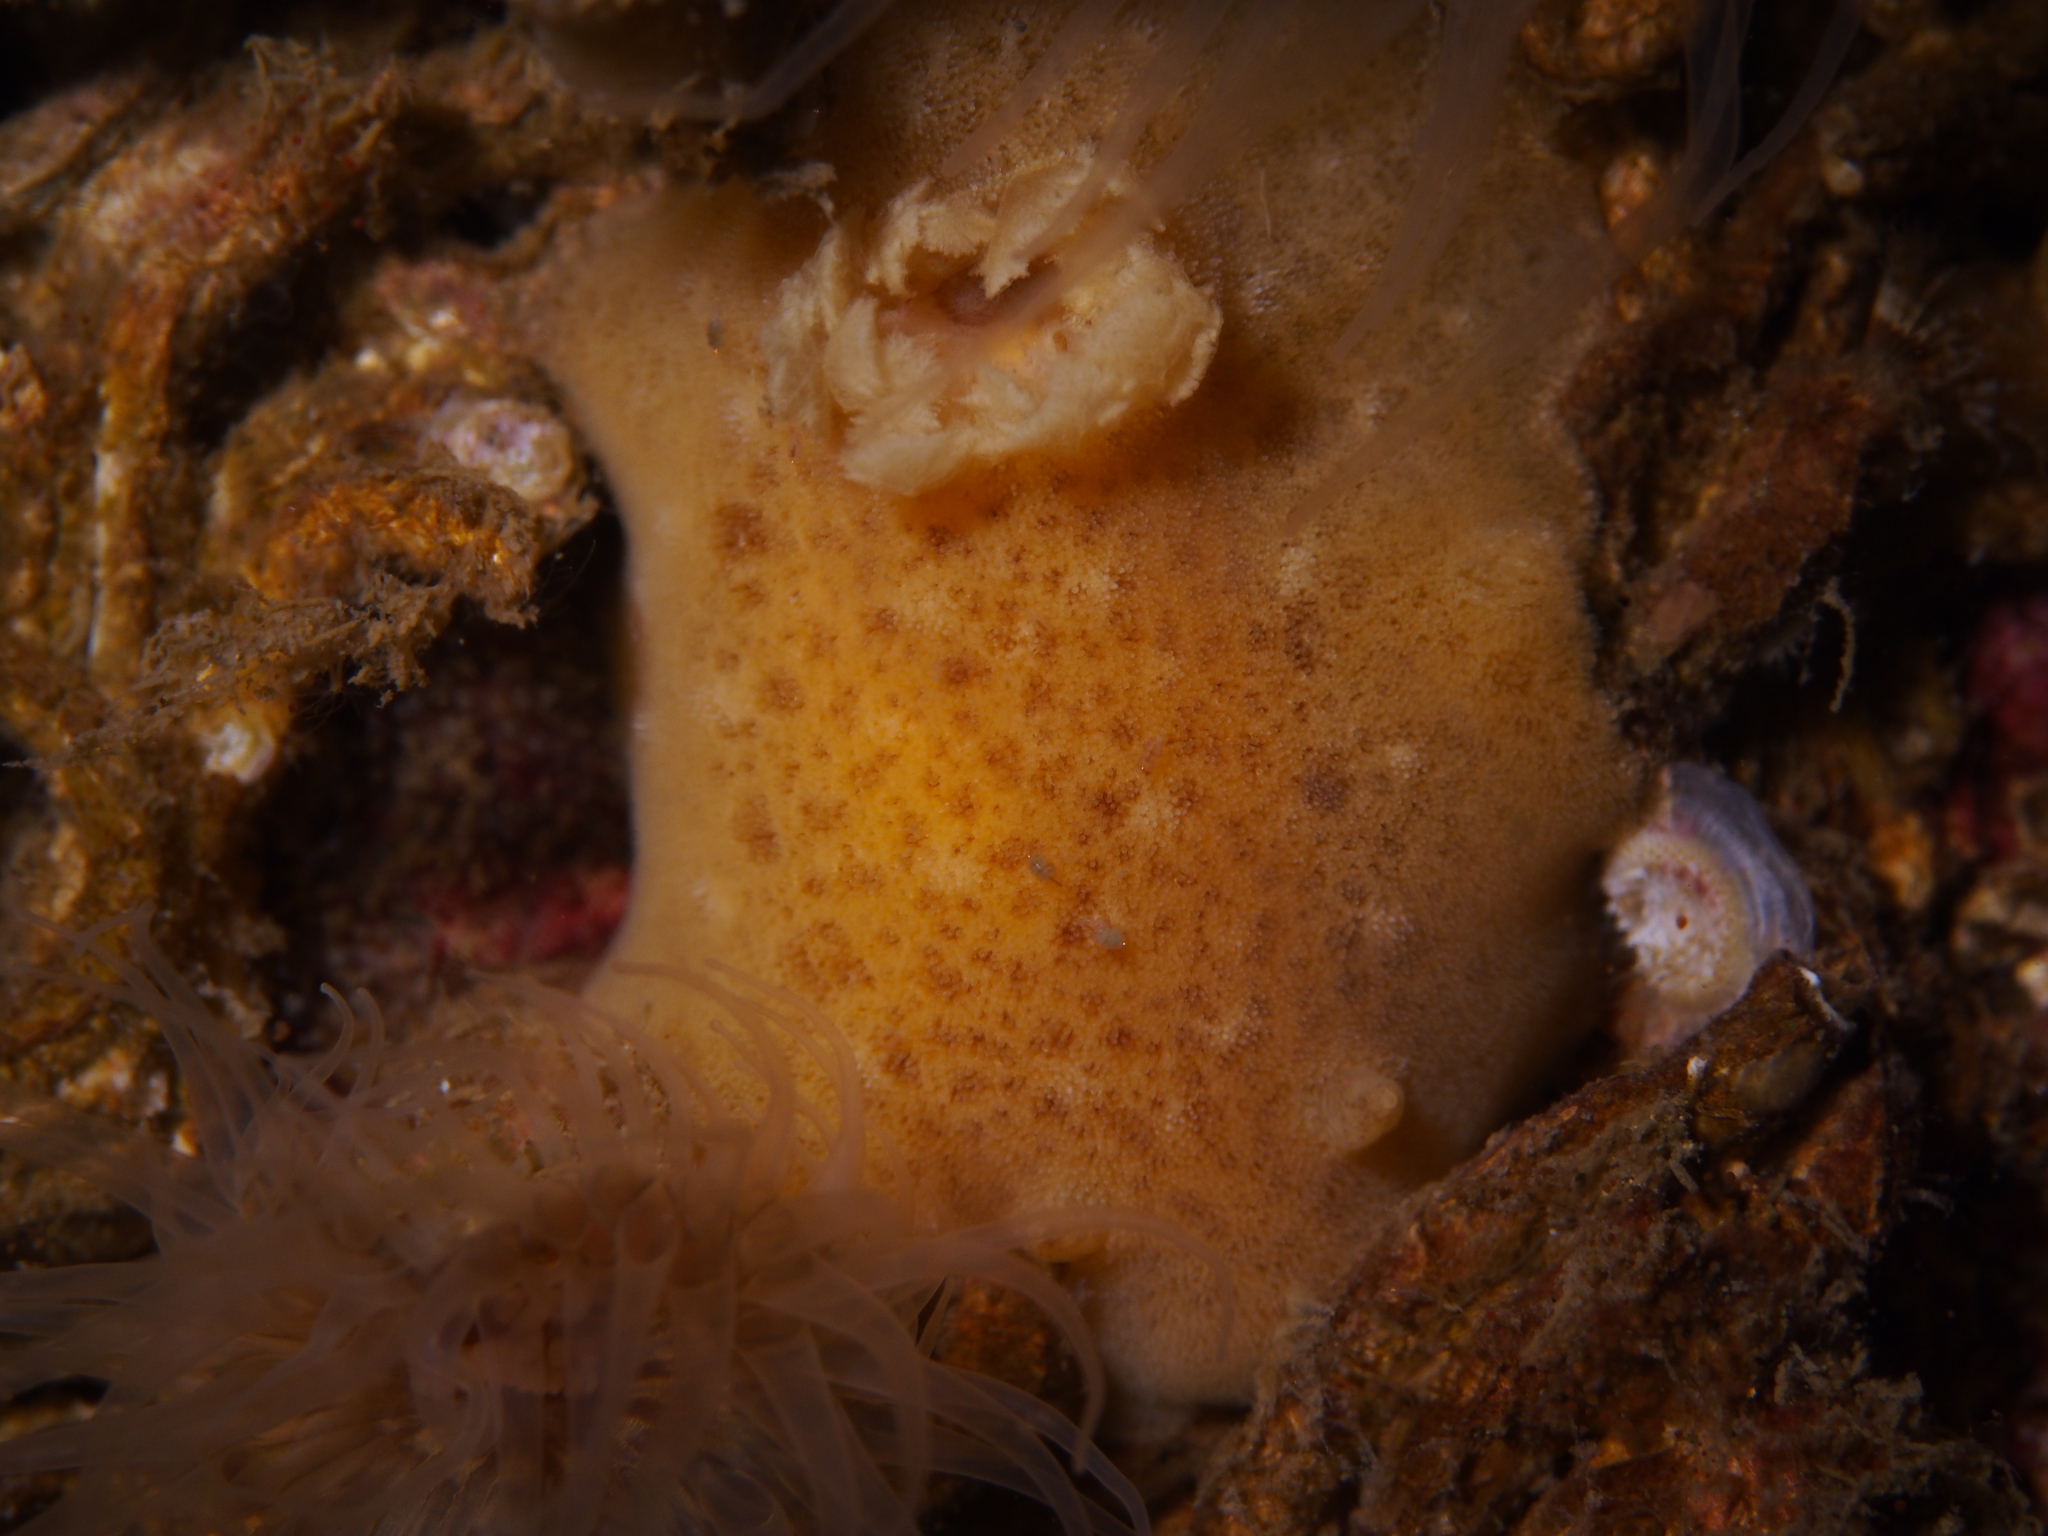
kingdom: Animalia
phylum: Mollusca
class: Gastropoda
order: Nudibranchia
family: Discodorididae
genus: Jorunna
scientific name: Jorunna tomentosa
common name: Grey sea slug
